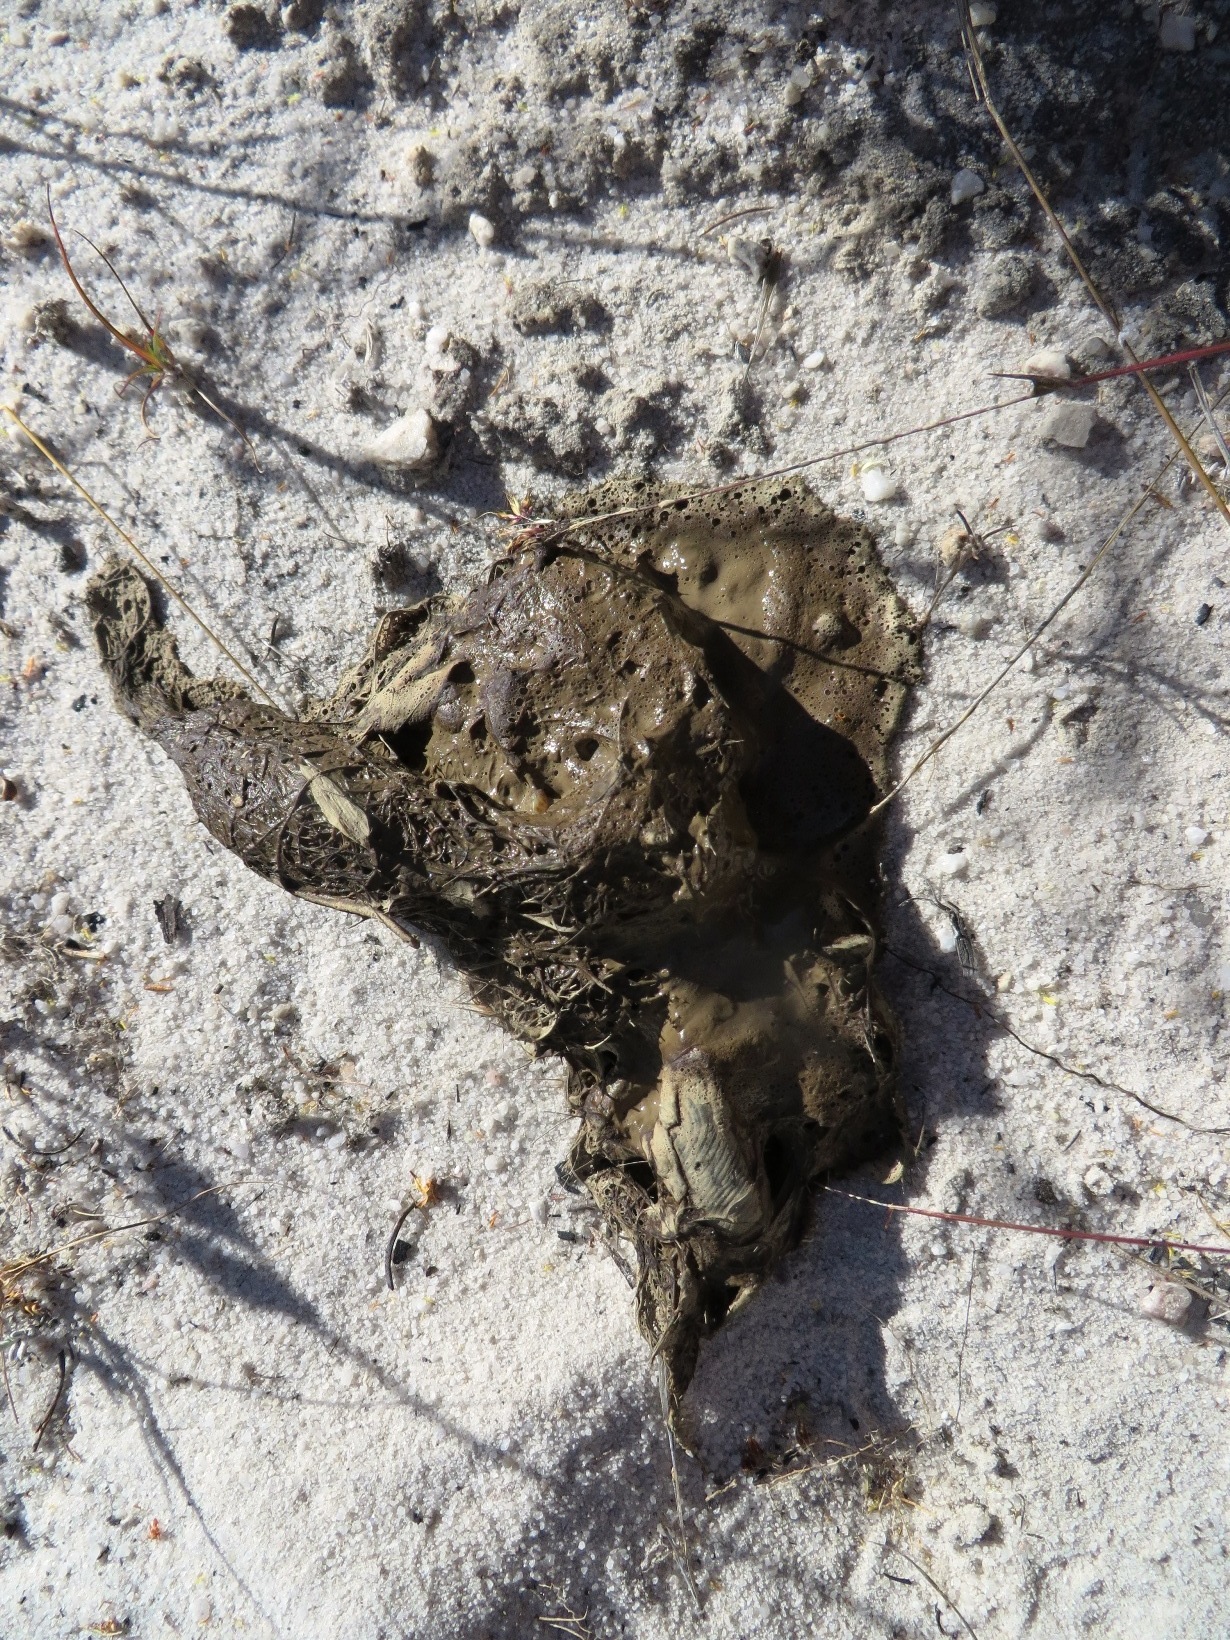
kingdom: Animalia
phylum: Chordata
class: Mammalia
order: Carnivora
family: Felidae
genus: Panthera
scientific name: Panthera pardus
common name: Leopard
